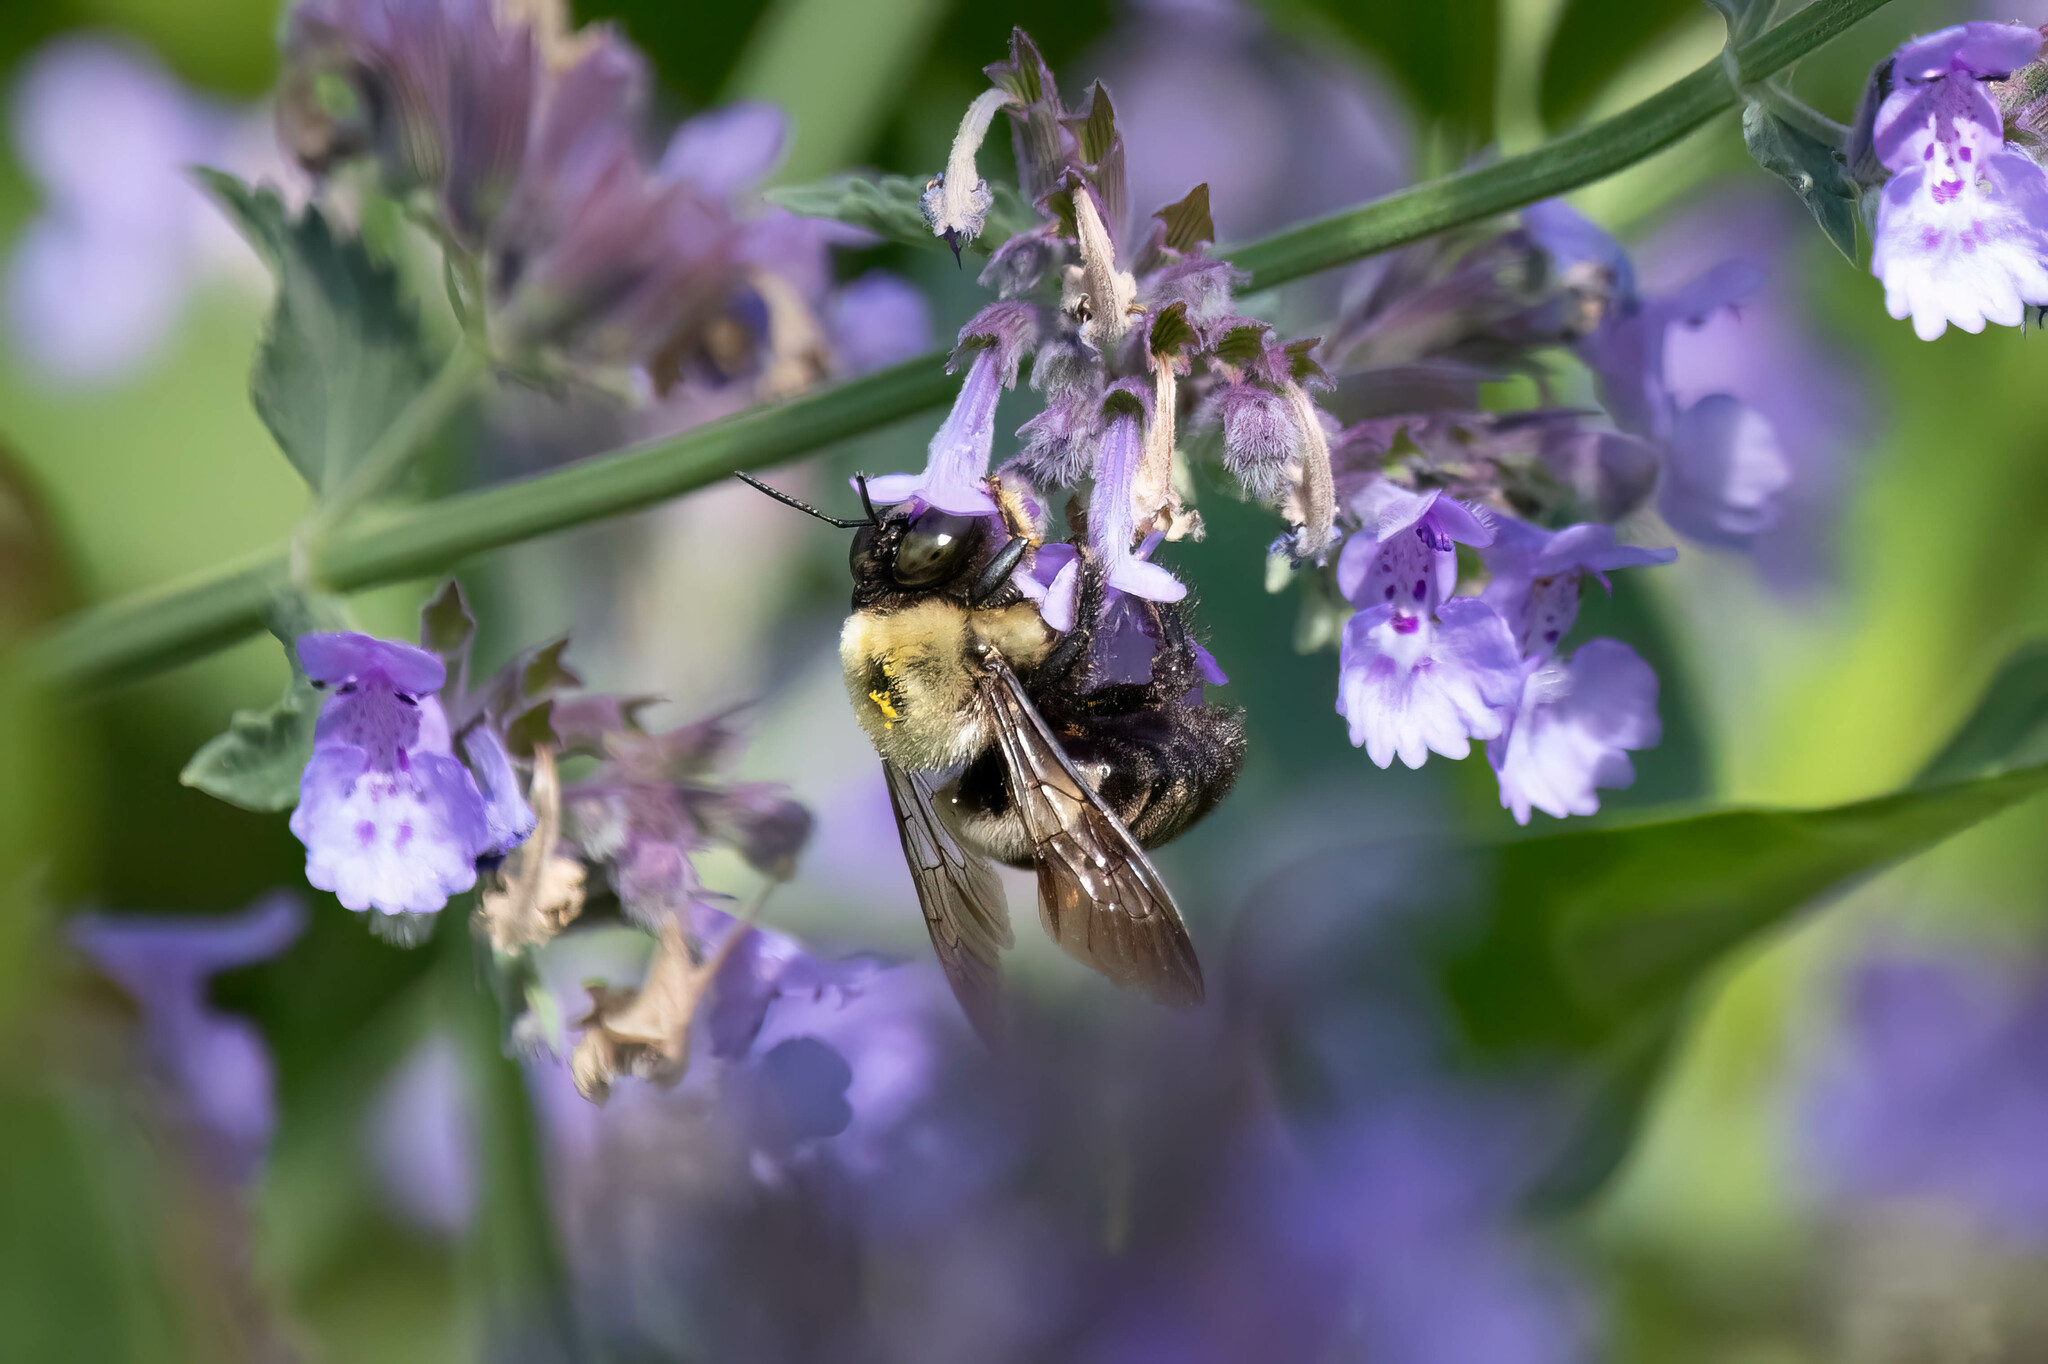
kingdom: Animalia
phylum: Arthropoda
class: Insecta
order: Hymenoptera
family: Apidae
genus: Xylocopa
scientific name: Xylocopa virginica
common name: Carpenter bee
